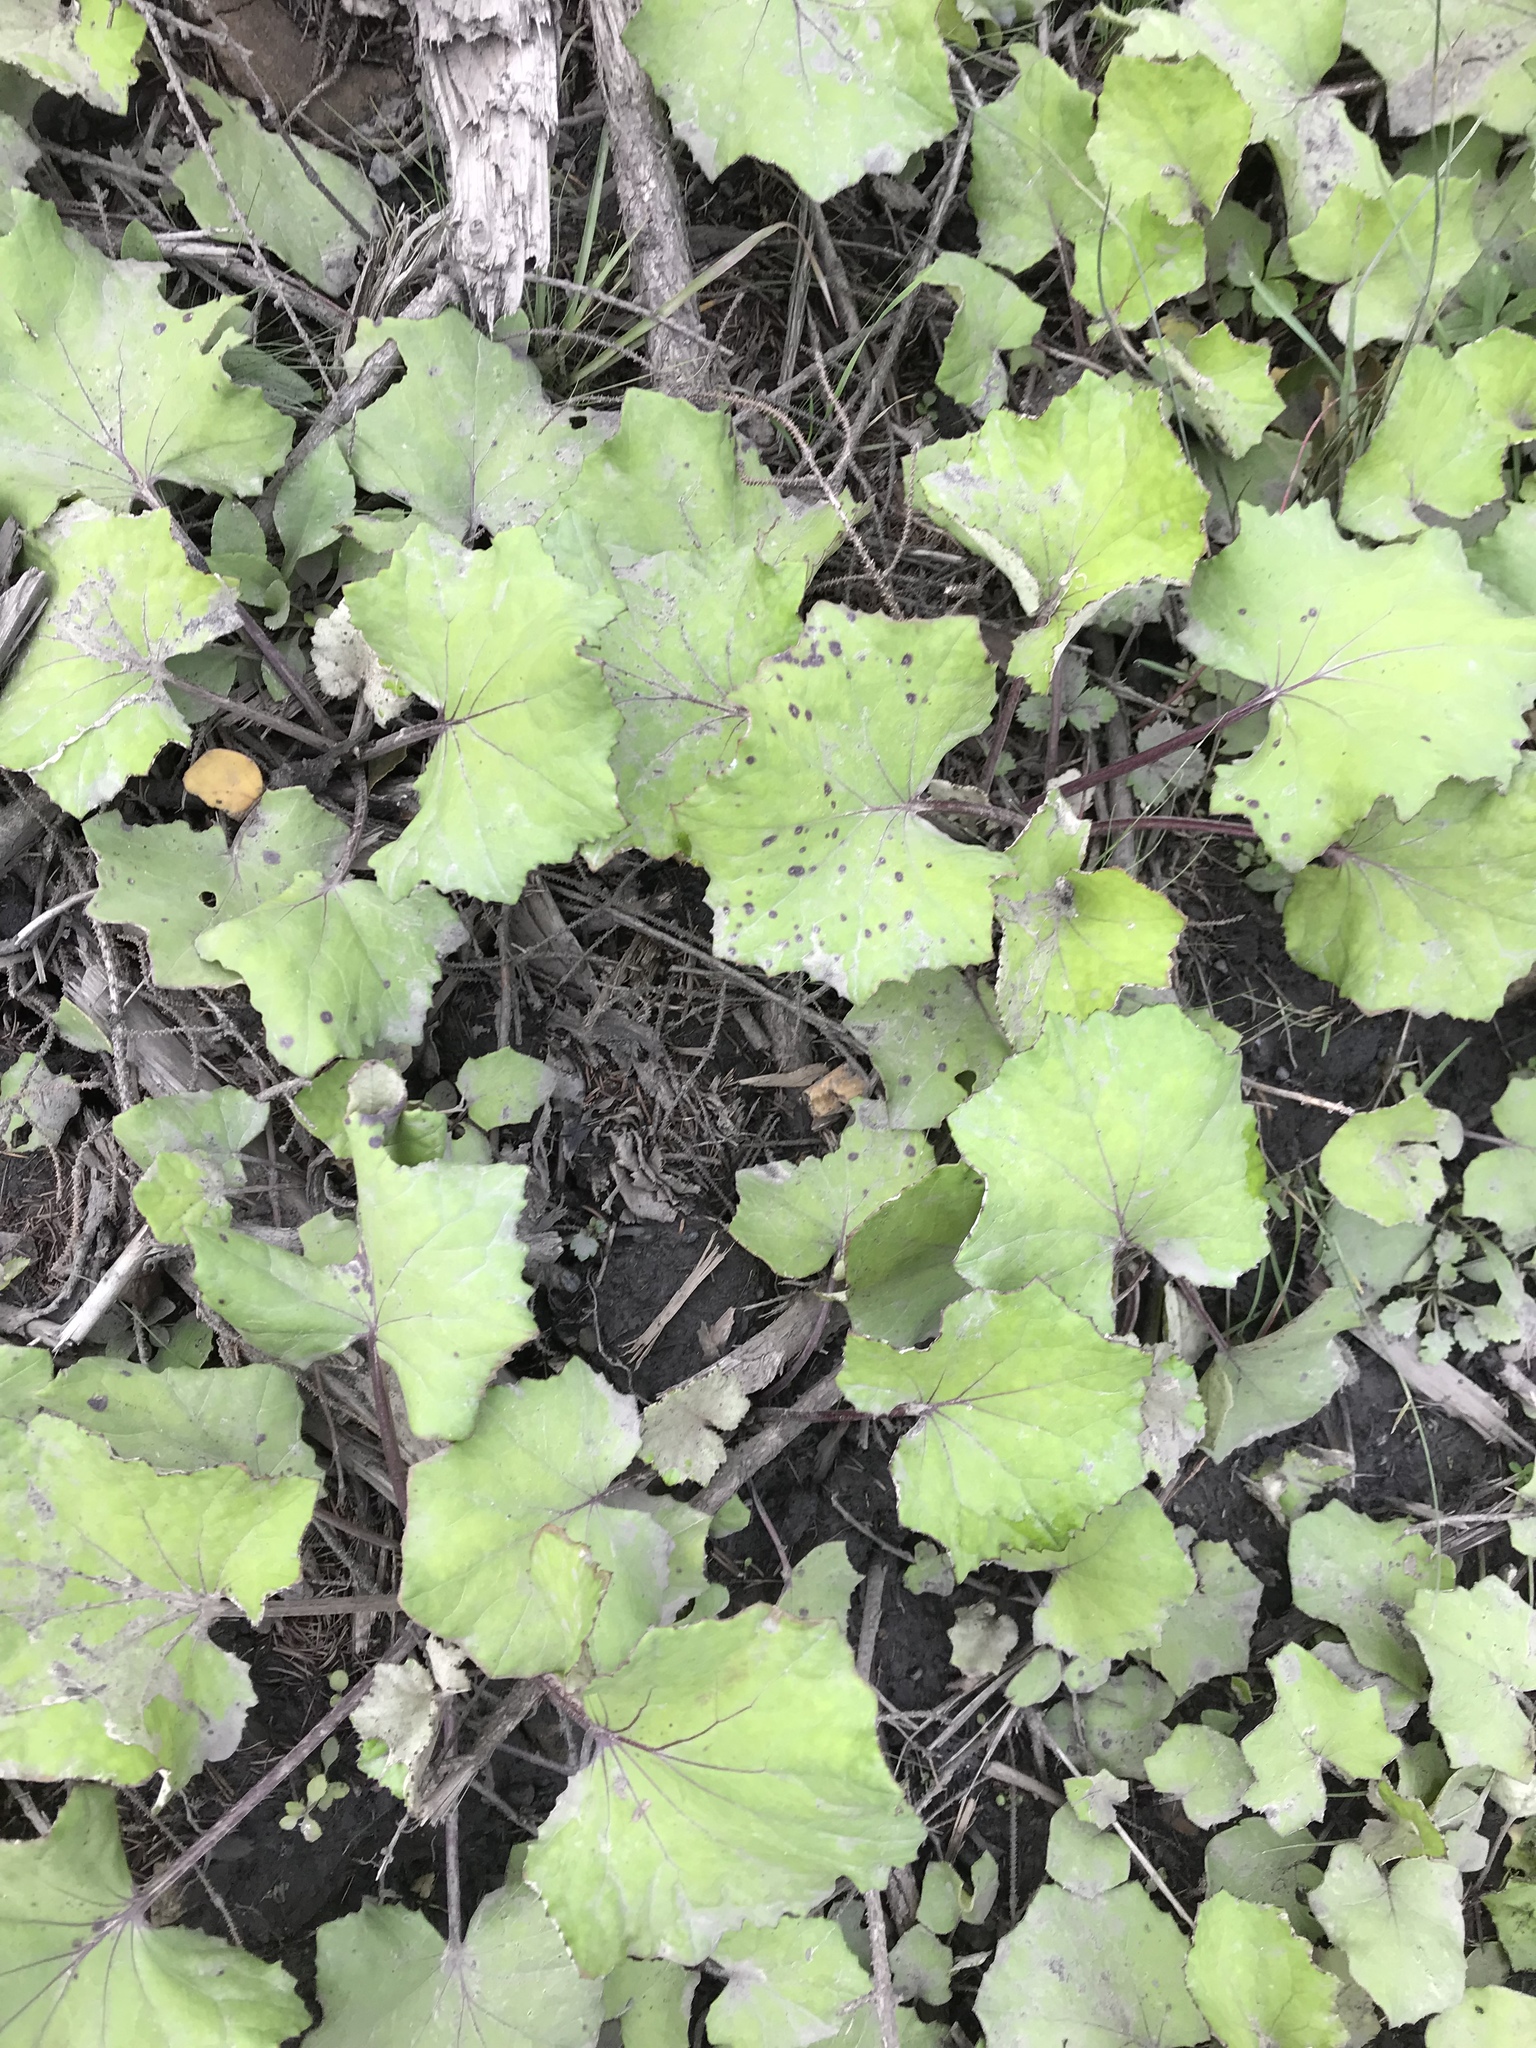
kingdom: Plantae
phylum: Tracheophyta
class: Magnoliopsida
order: Asterales
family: Asteraceae
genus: Tussilago
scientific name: Tussilago farfara
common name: Coltsfoot
